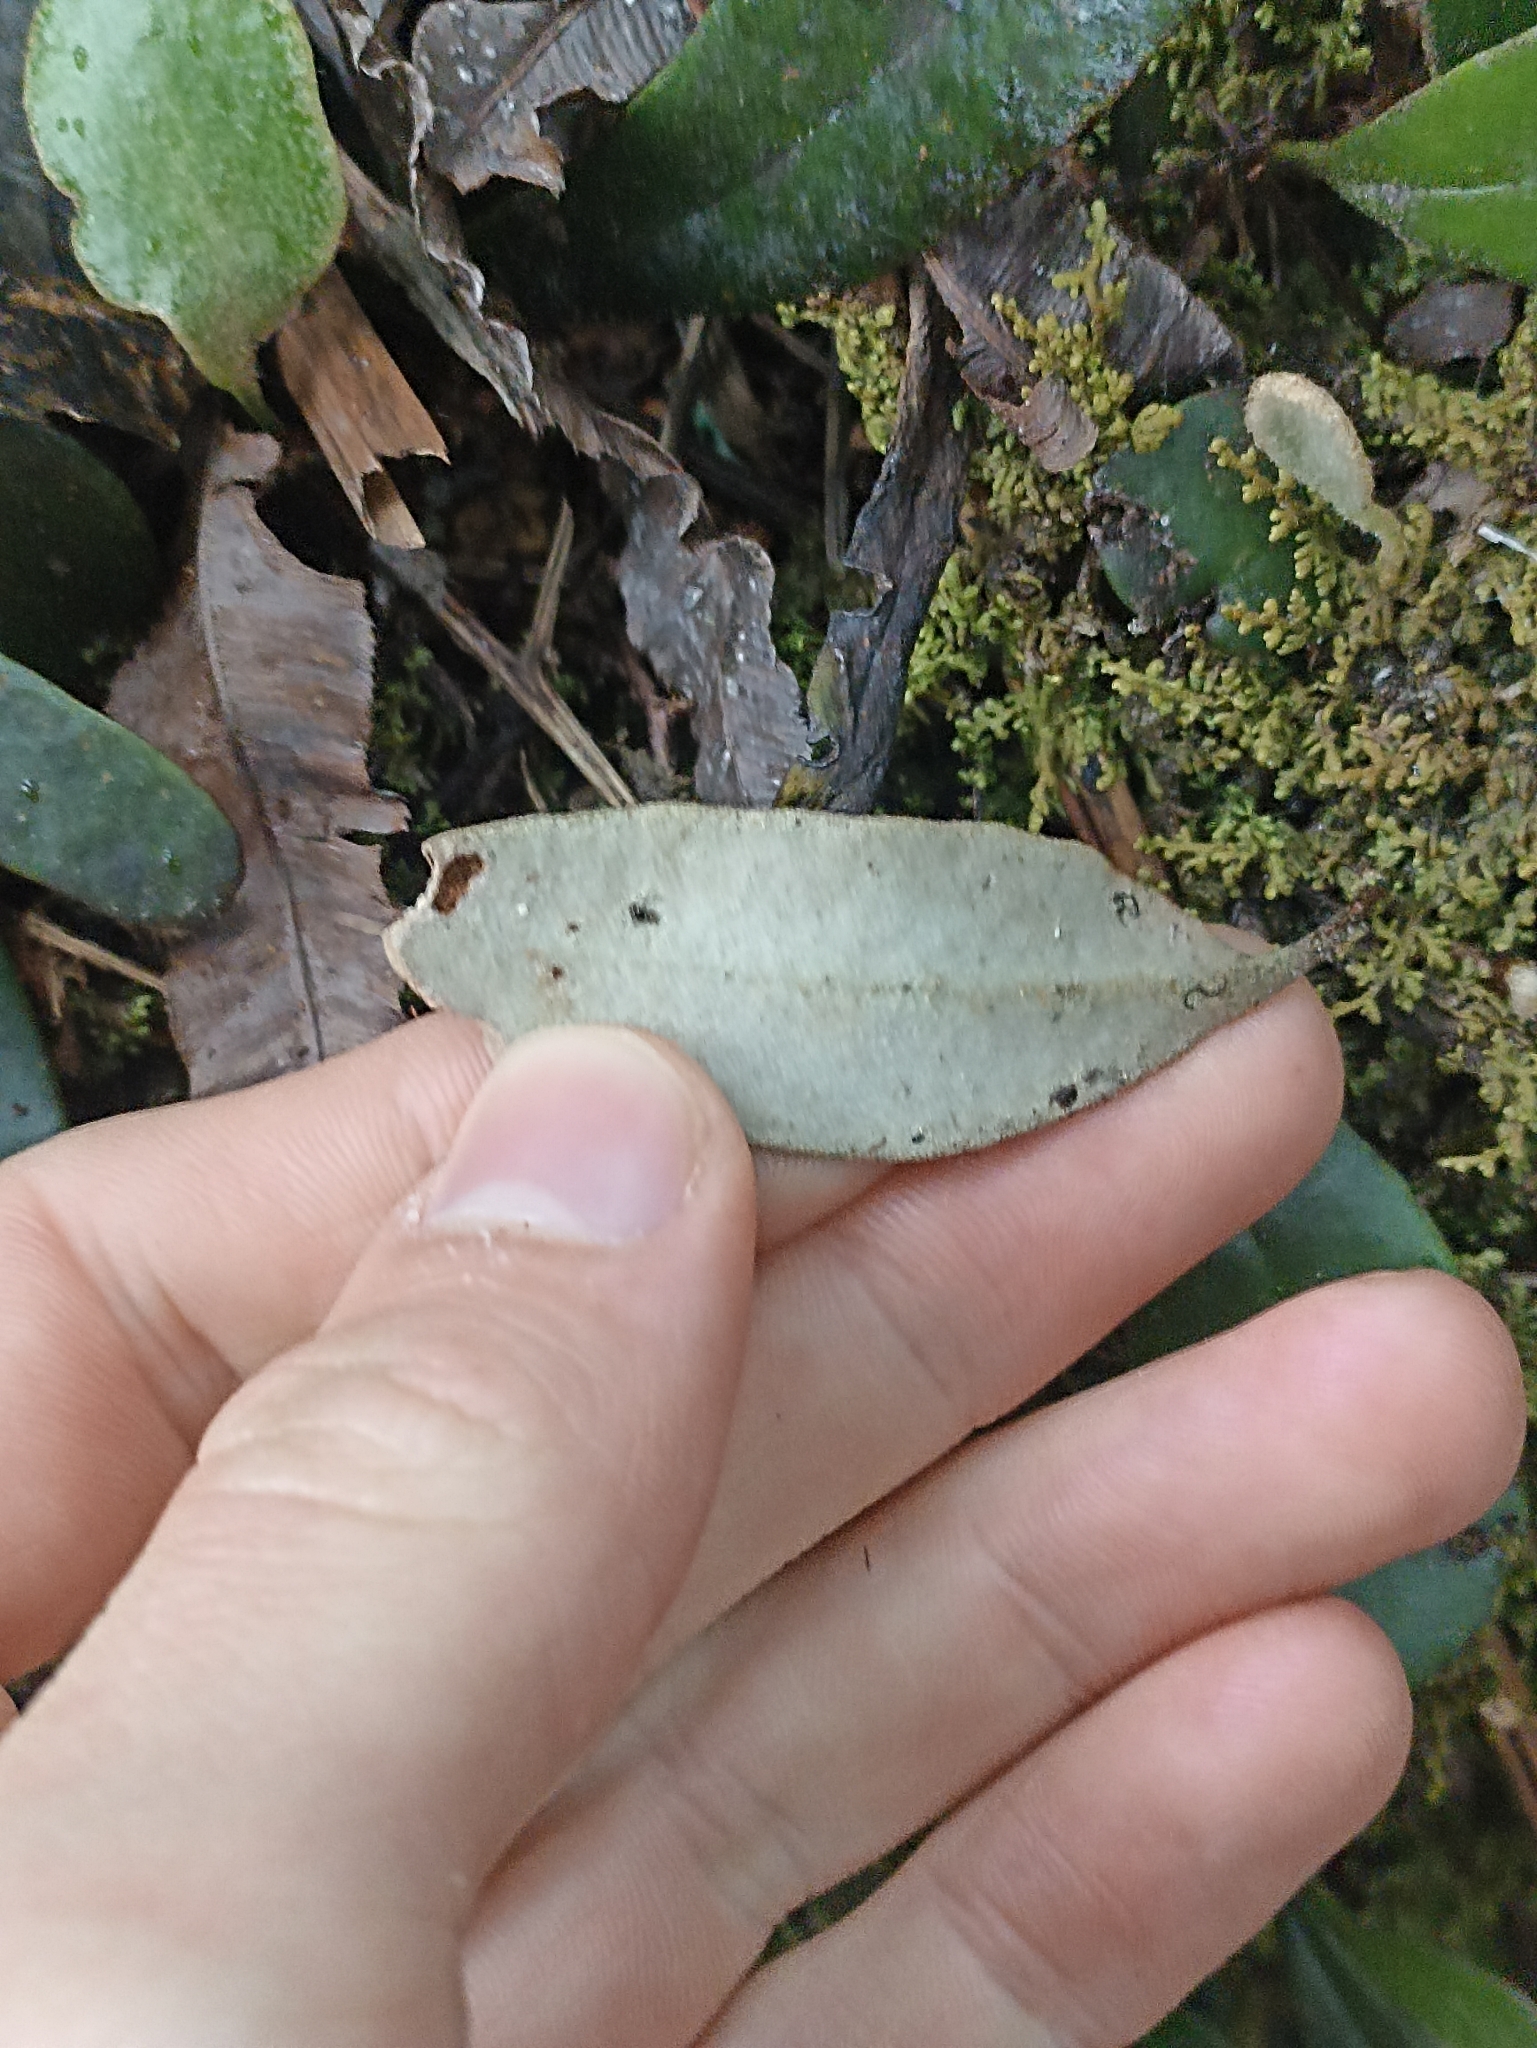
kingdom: Plantae
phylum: Tracheophyta
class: Polypodiopsida
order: Polypodiales
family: Polypodiaceae
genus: Pyrrosia
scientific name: Pyrrosia eleagnifolia
